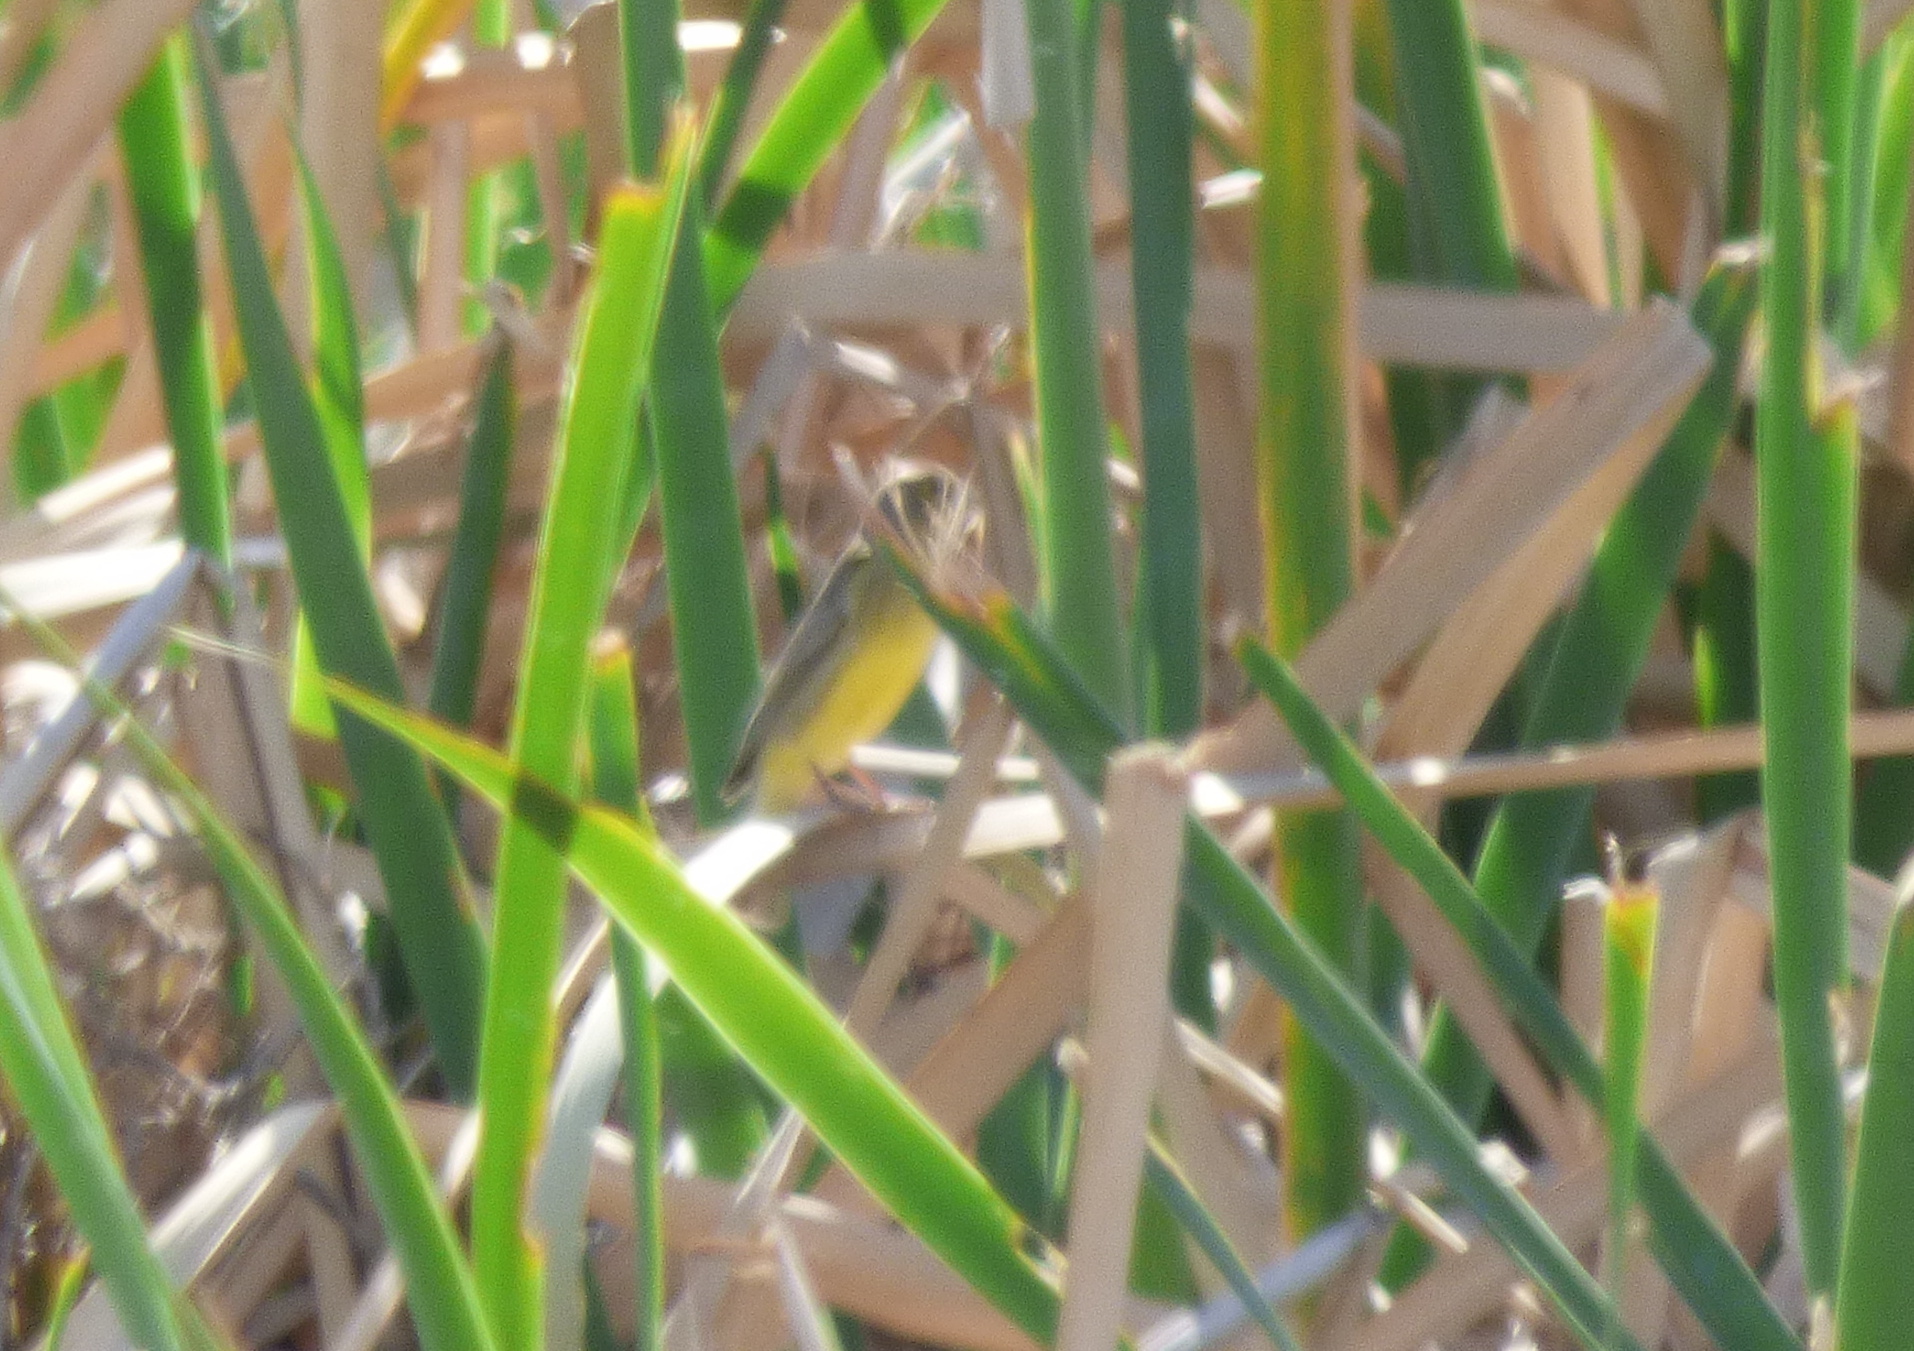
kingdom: Animalia
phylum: Chordata
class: Aves
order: Passeriformes
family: Thraupidae
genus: Sicalis
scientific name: Sicalis luteola
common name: Grassland yellow-finch
